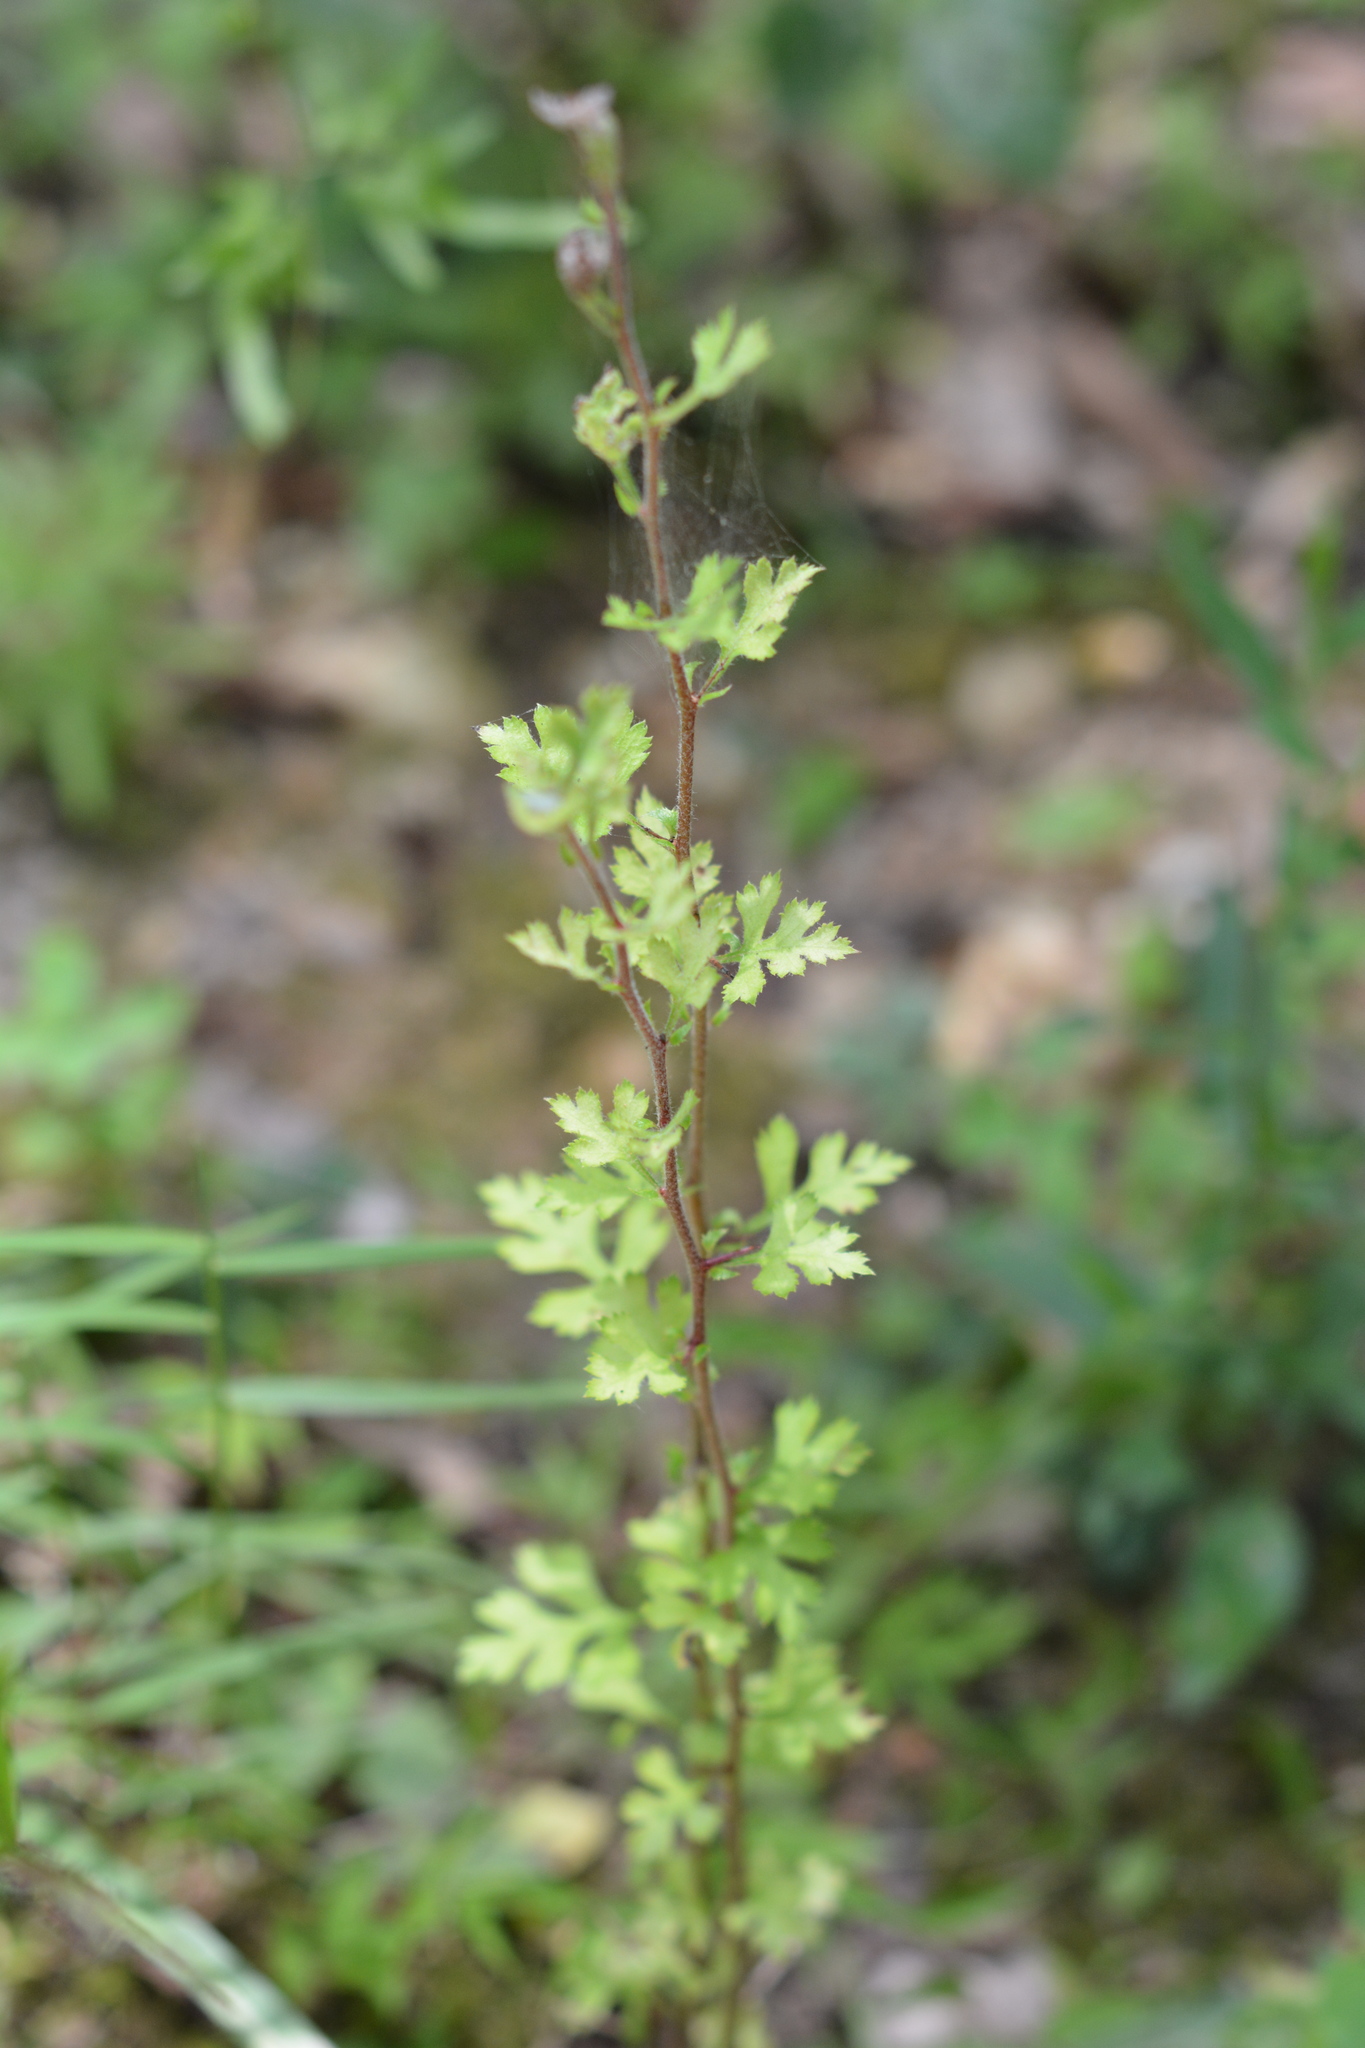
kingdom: Plantae
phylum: Tracheophyta
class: Magnoliopsida
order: Rosales
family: Rosaceae
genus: Crataegus
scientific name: Crataegus marshallii
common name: Parsley-hawthorn
